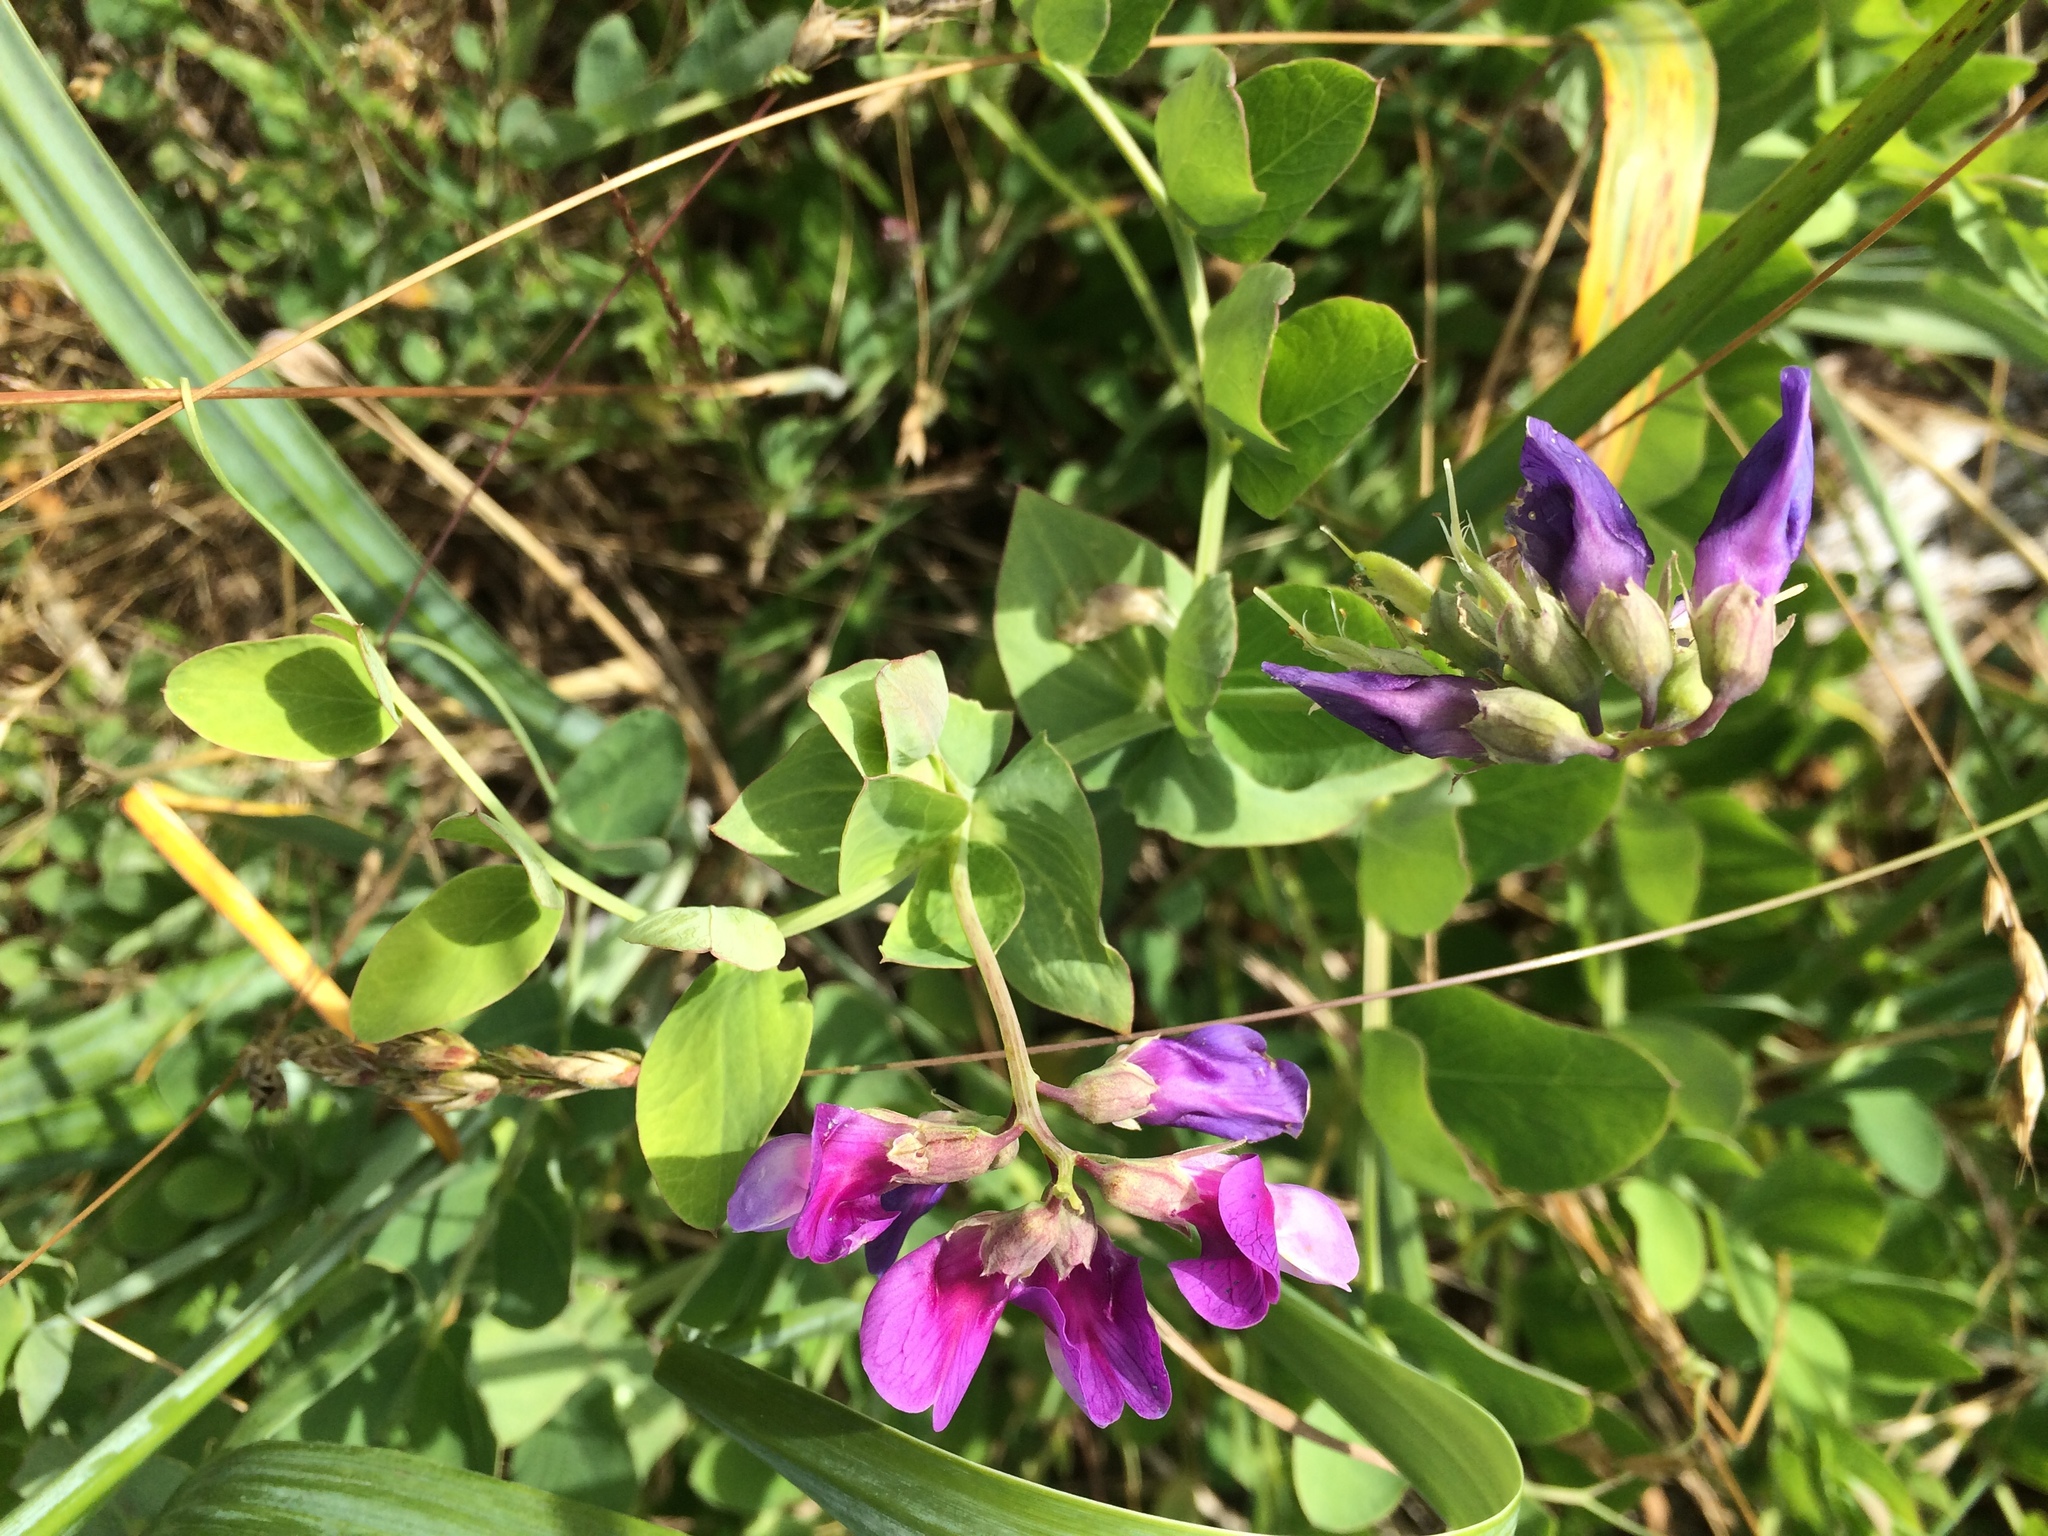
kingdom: Plantae
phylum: Tracheophyta
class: Magnoliopsida
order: Fabales
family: Fabaceae
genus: Lathyrus
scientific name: Lathyrus japonicus
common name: Sea pea
